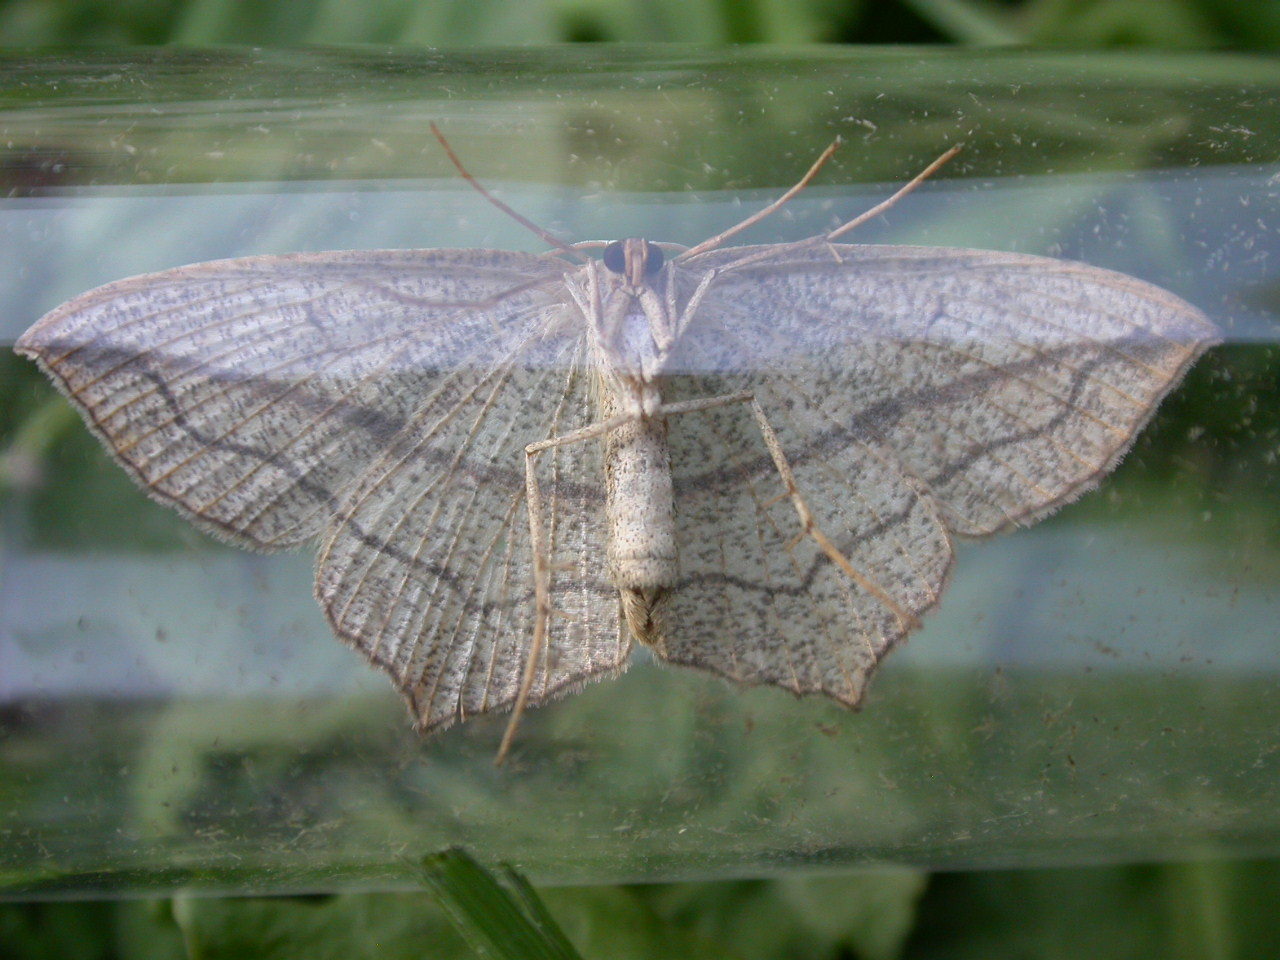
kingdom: Animalia
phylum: Arthropoda
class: Insecta
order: Lepidoptera
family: Geometridae
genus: Timandra
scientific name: Timandra comae
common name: Blood-vein
